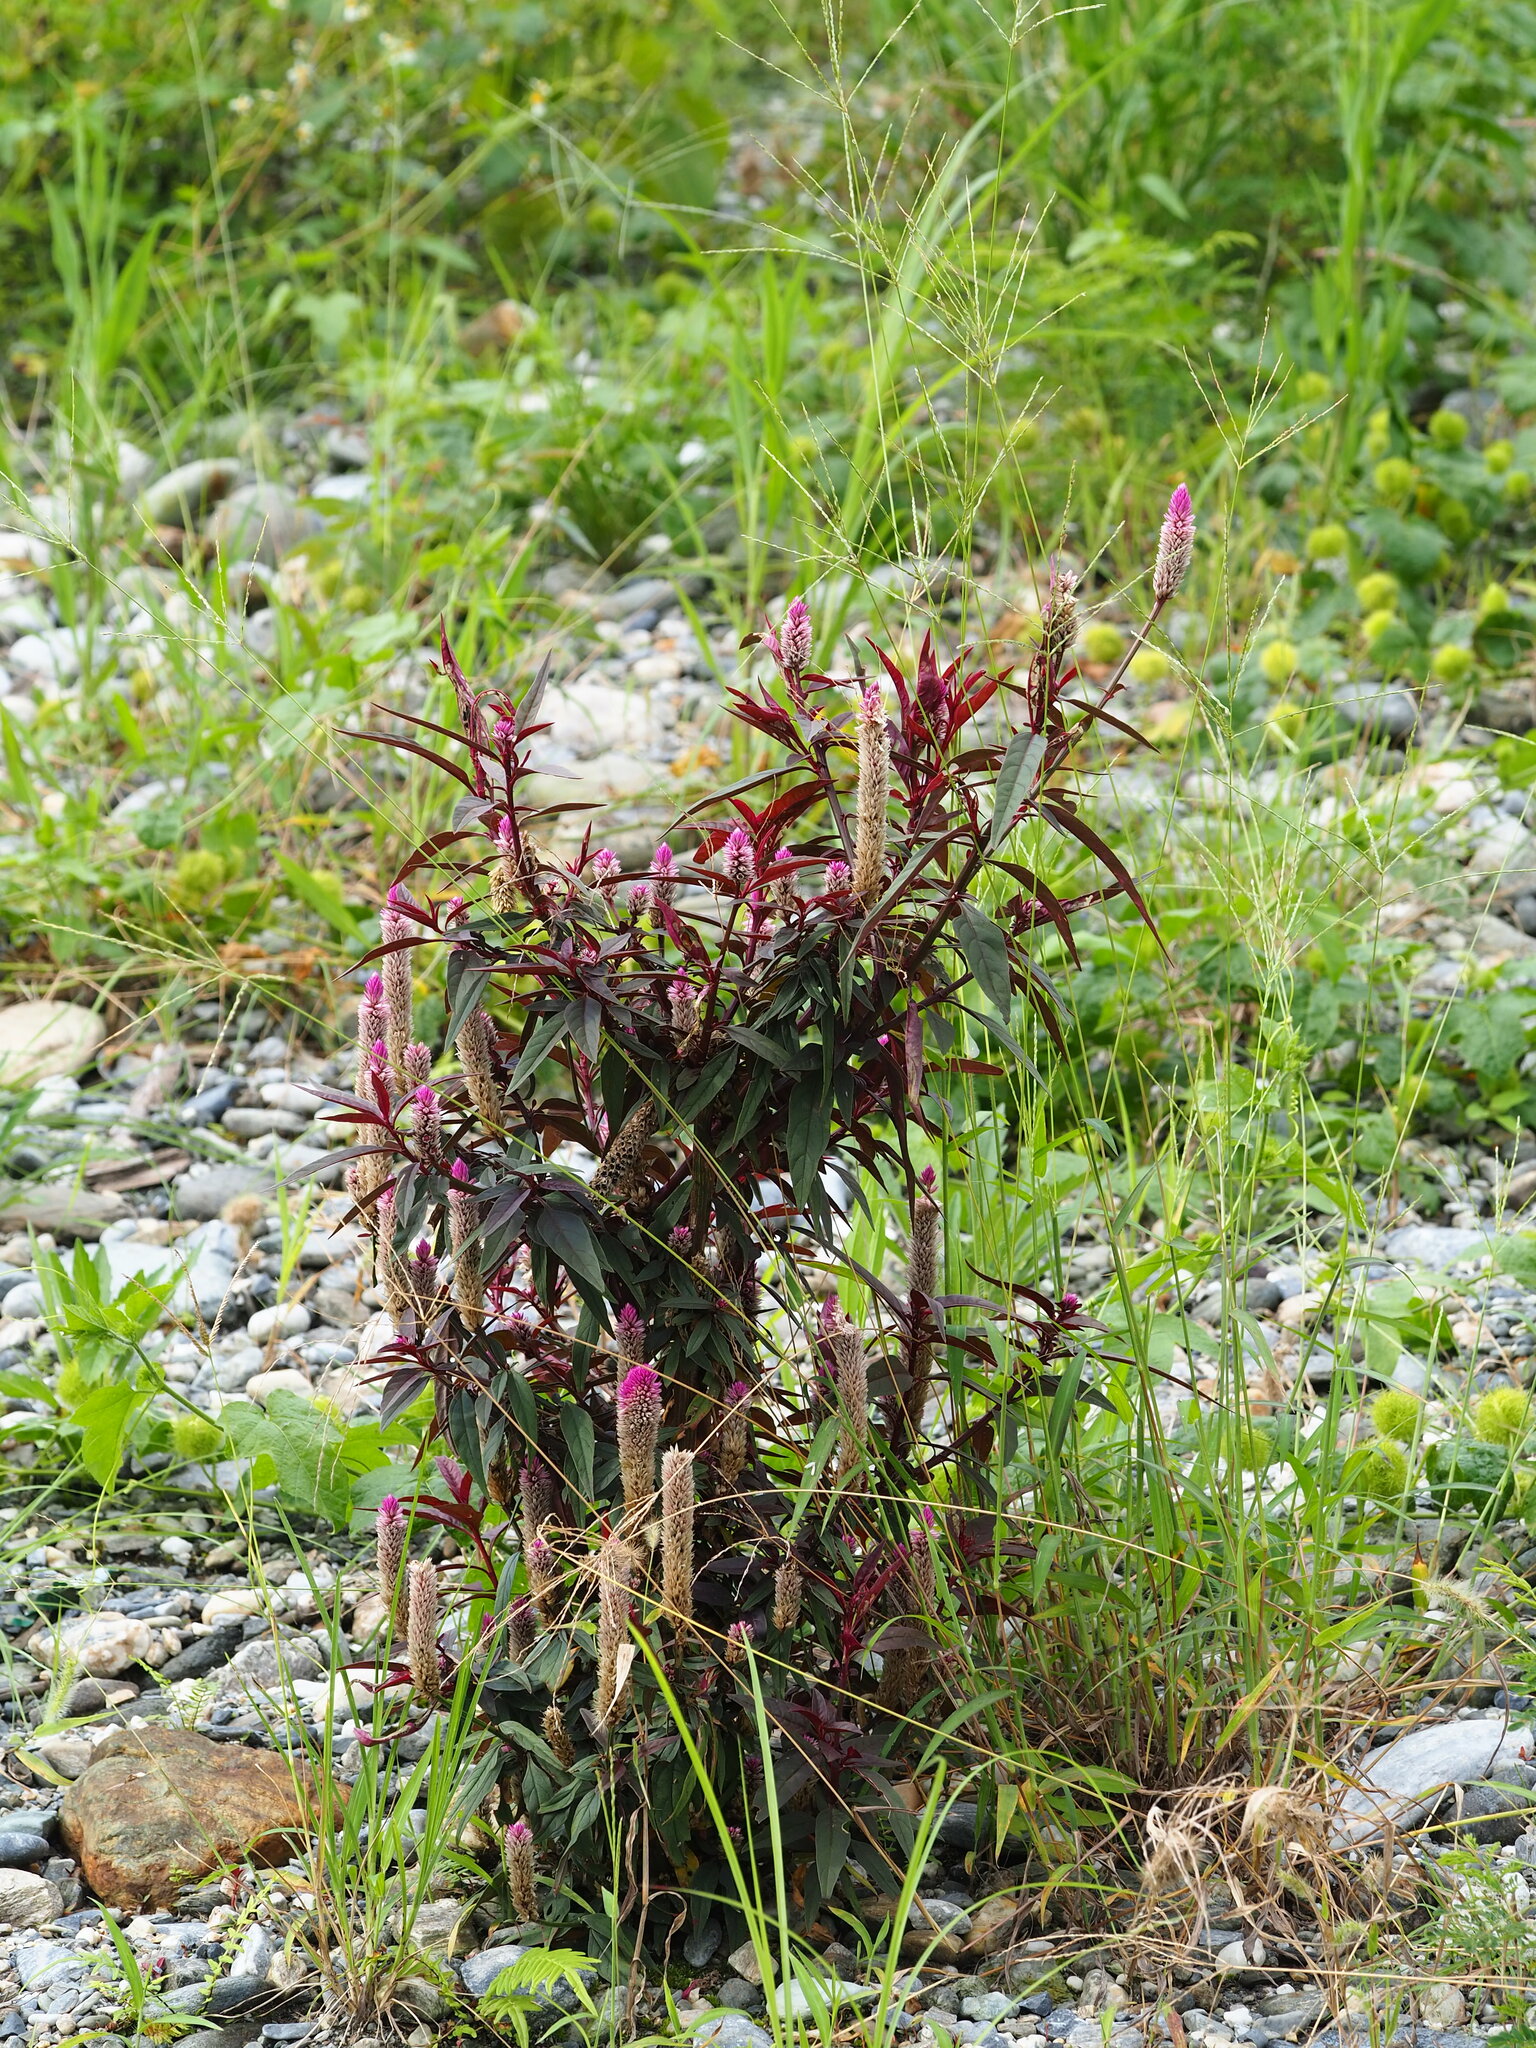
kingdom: Plantae
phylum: Tracheophyta
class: Magnoliopsida
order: Caryophyllales
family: Amaranthaceae
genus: Celosia
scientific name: Celosia argentea
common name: Feather cockscomb
